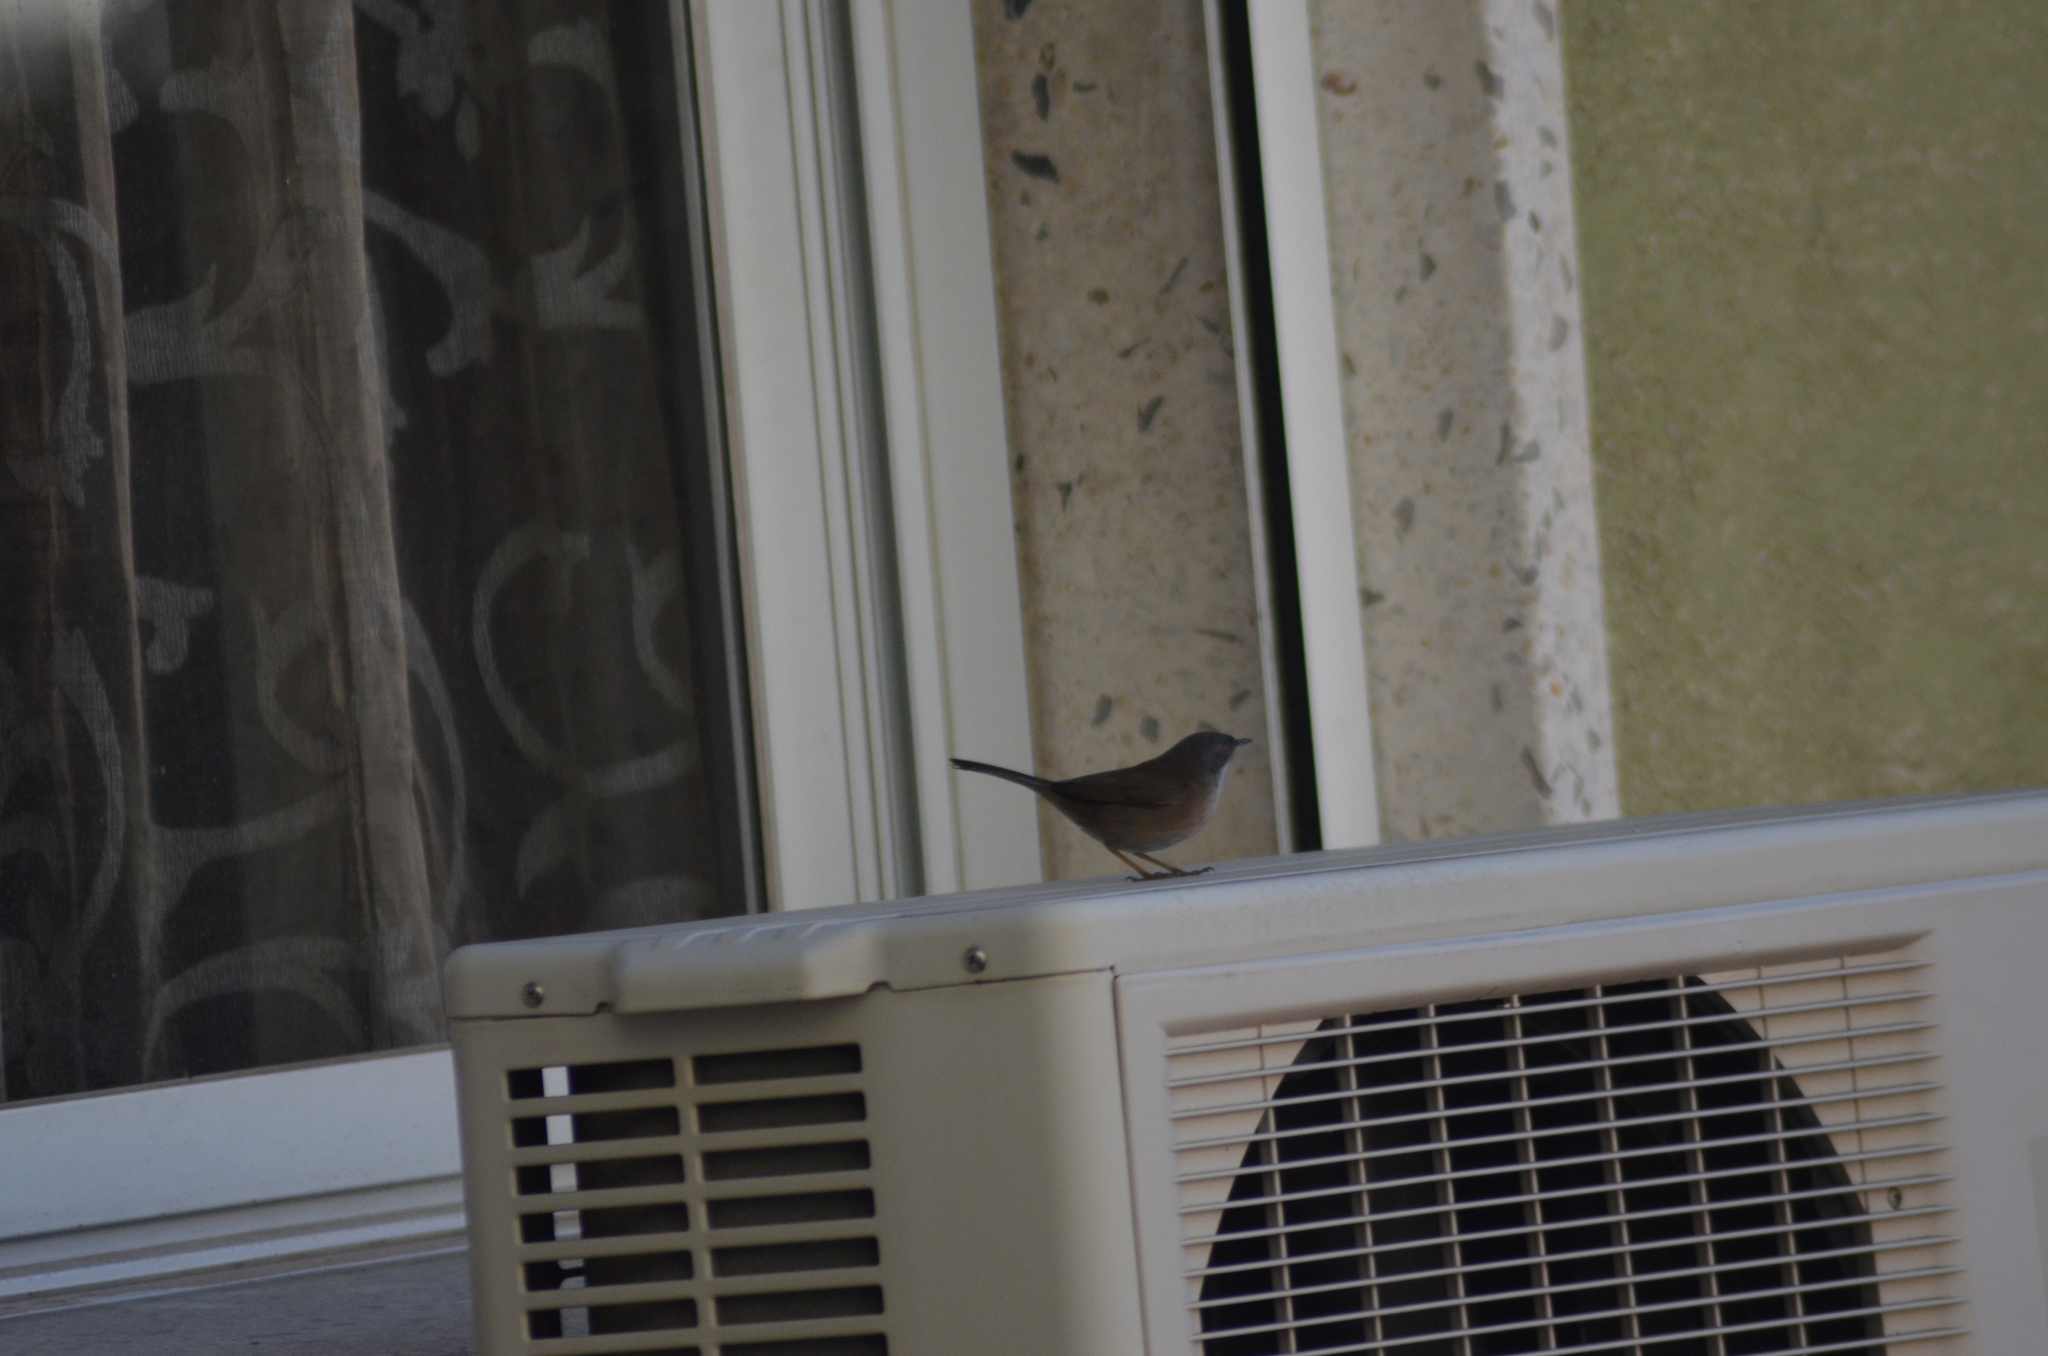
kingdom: Animalia
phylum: Chordata
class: Aves
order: Passeriformes
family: Sylviidae
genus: Curruca
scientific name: Curruca melanocephala
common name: Sardinian warbler
